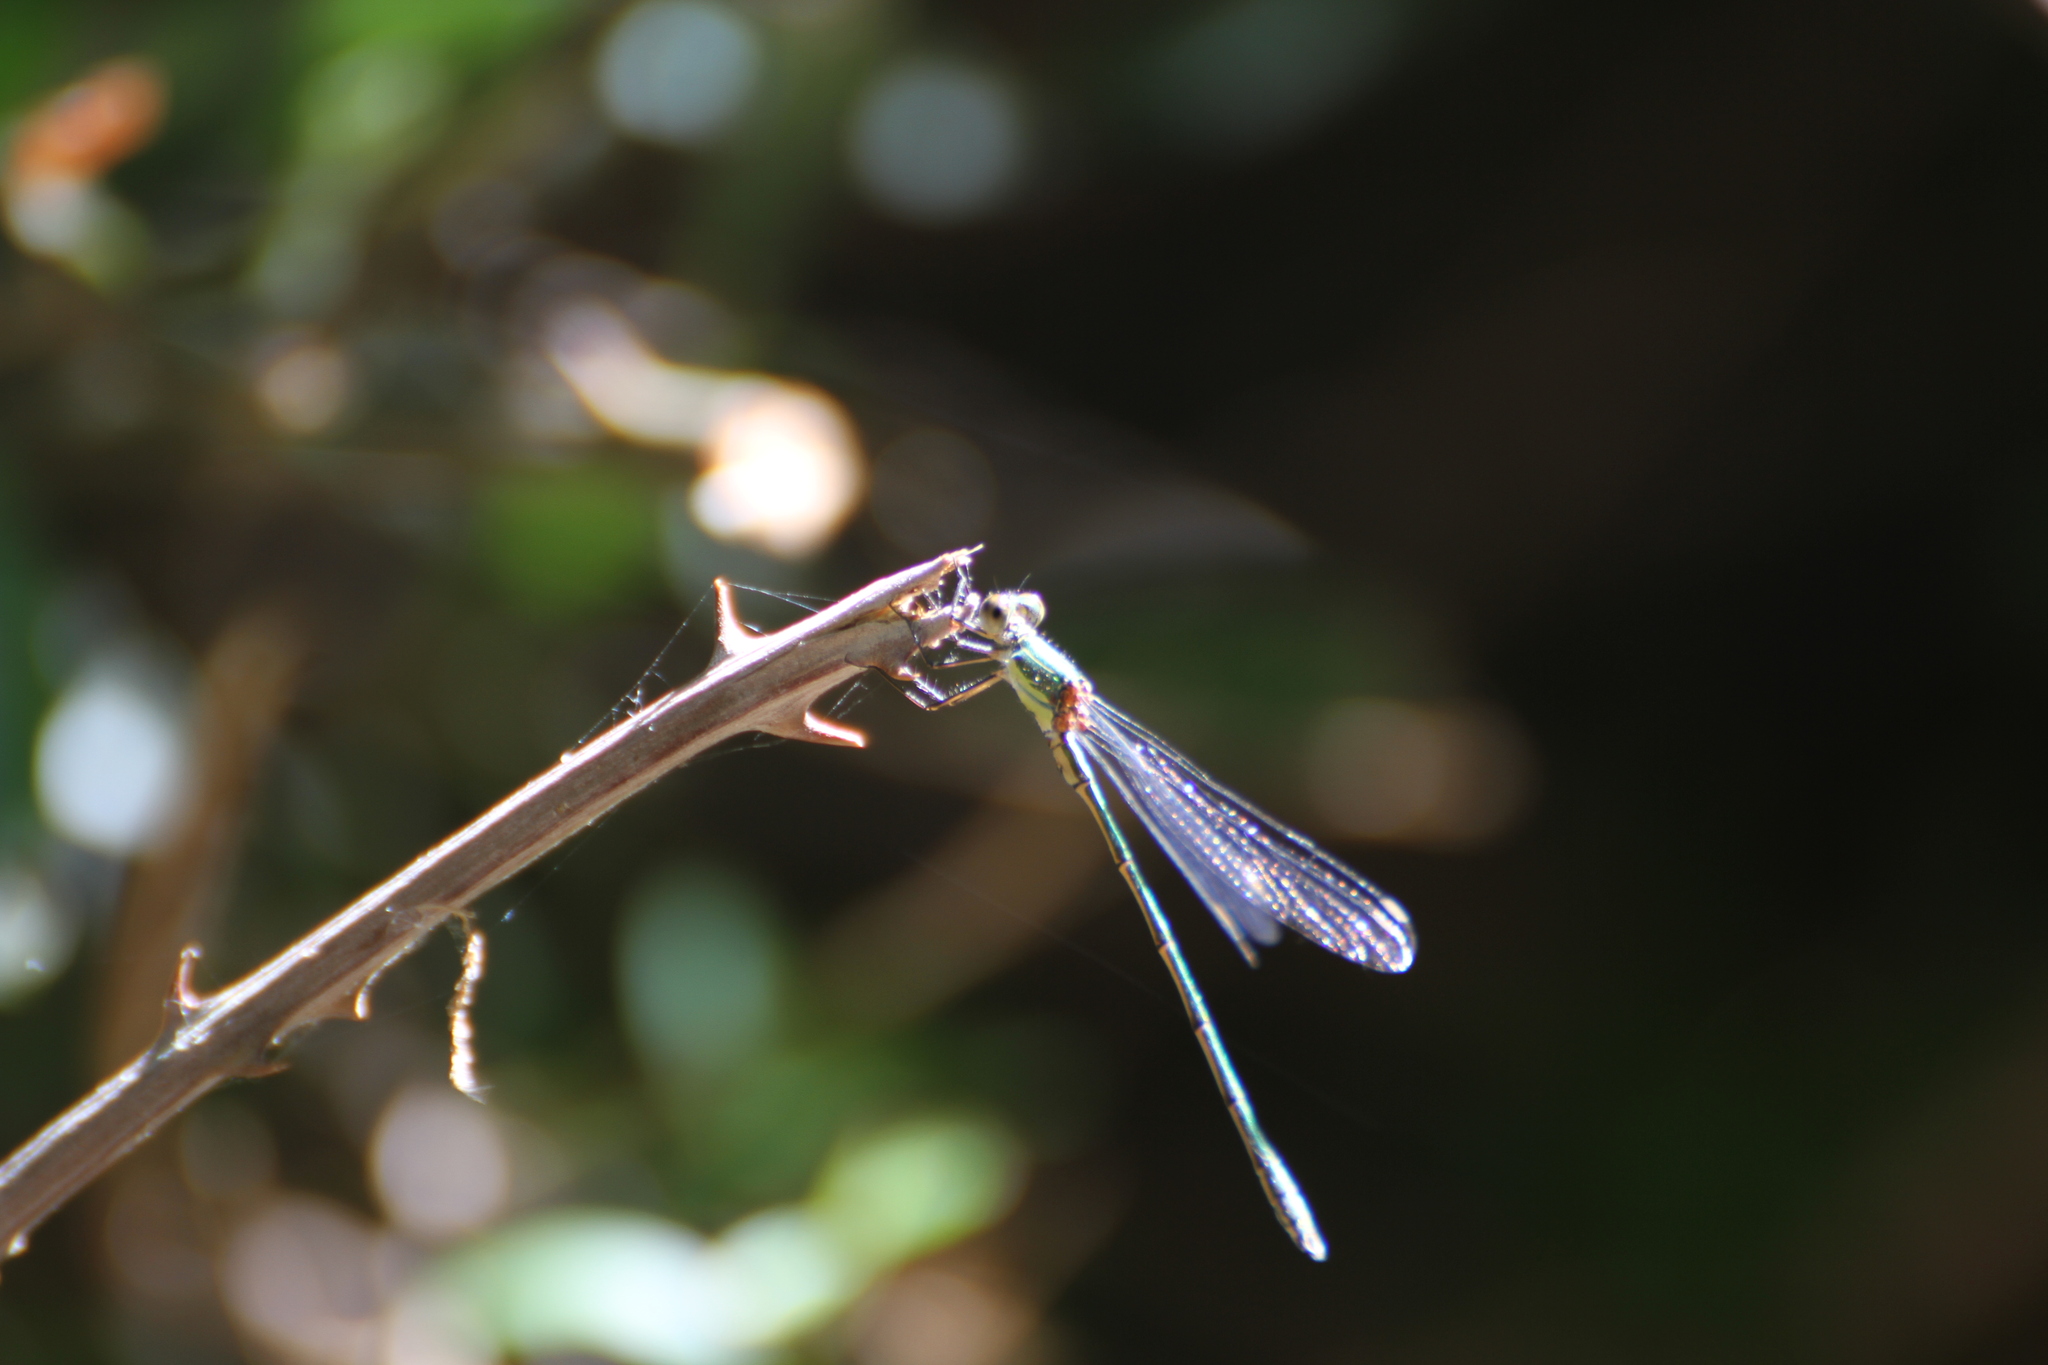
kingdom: Animalia
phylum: Arthropoda
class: Insecta
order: Odonata
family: Lestidae
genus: Chalcolestes
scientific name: Chalcolestes viridis
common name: Green emerald damselfly
